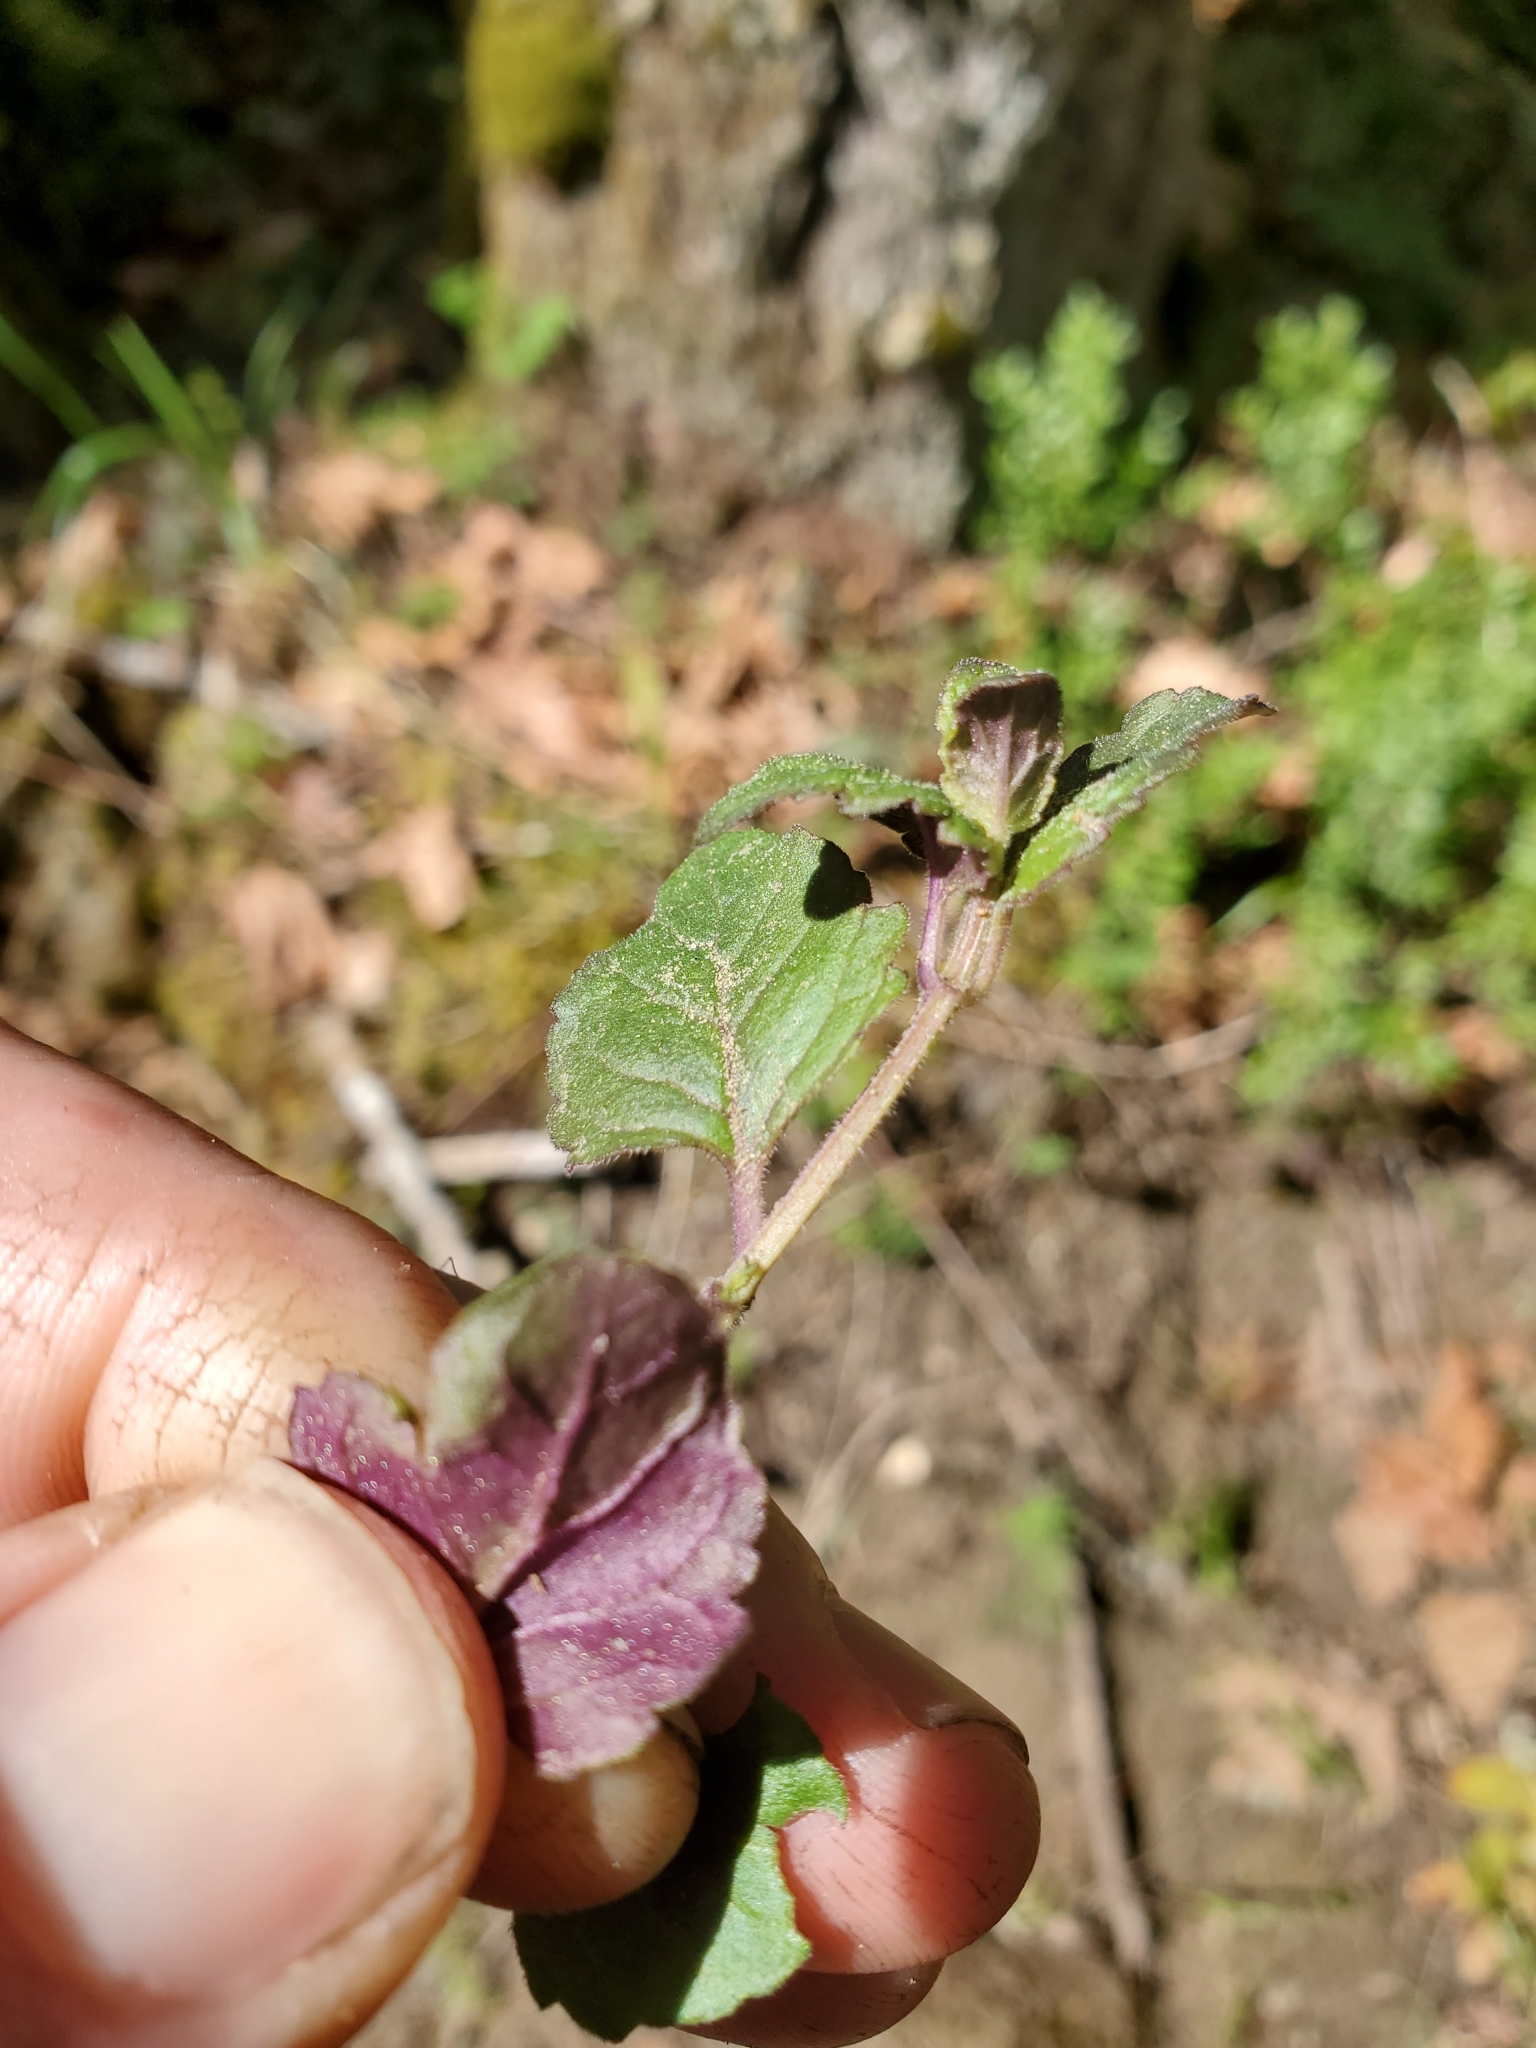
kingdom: Plantae
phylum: Tracheophyta
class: Magnoliopsida
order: Lamiales
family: Lamiaceae
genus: Micromeria
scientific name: Micromeria douglasii
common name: Yerba buena
